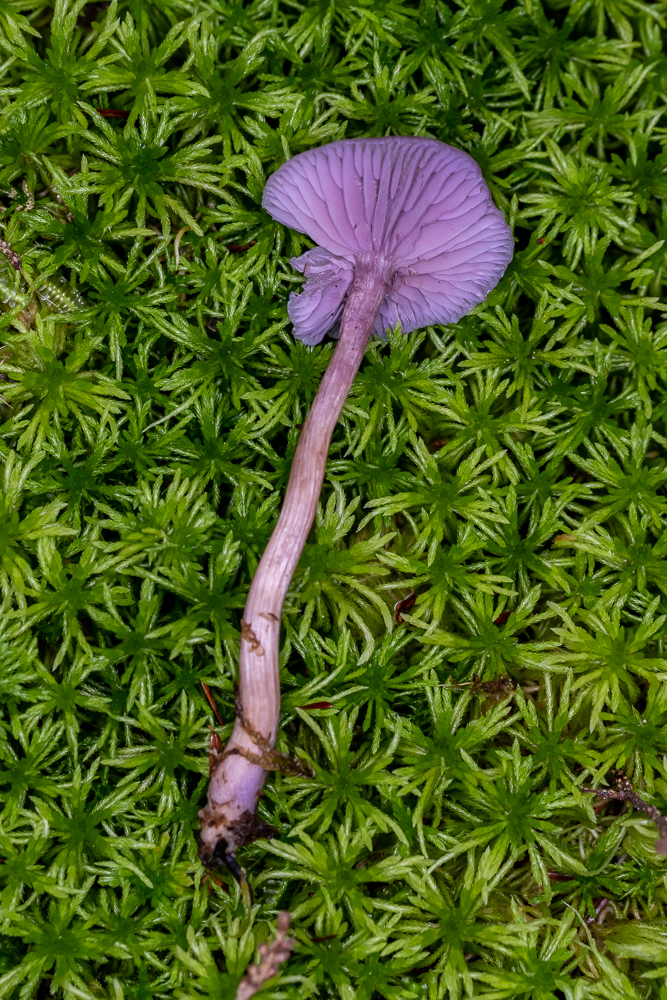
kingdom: Fungi
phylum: Basidiomycota
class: Agaricomycetes
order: Agaricales
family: Hydnangiaceae
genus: Laccaria
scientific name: Laccaria amethystina
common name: Amethyst deceiver
